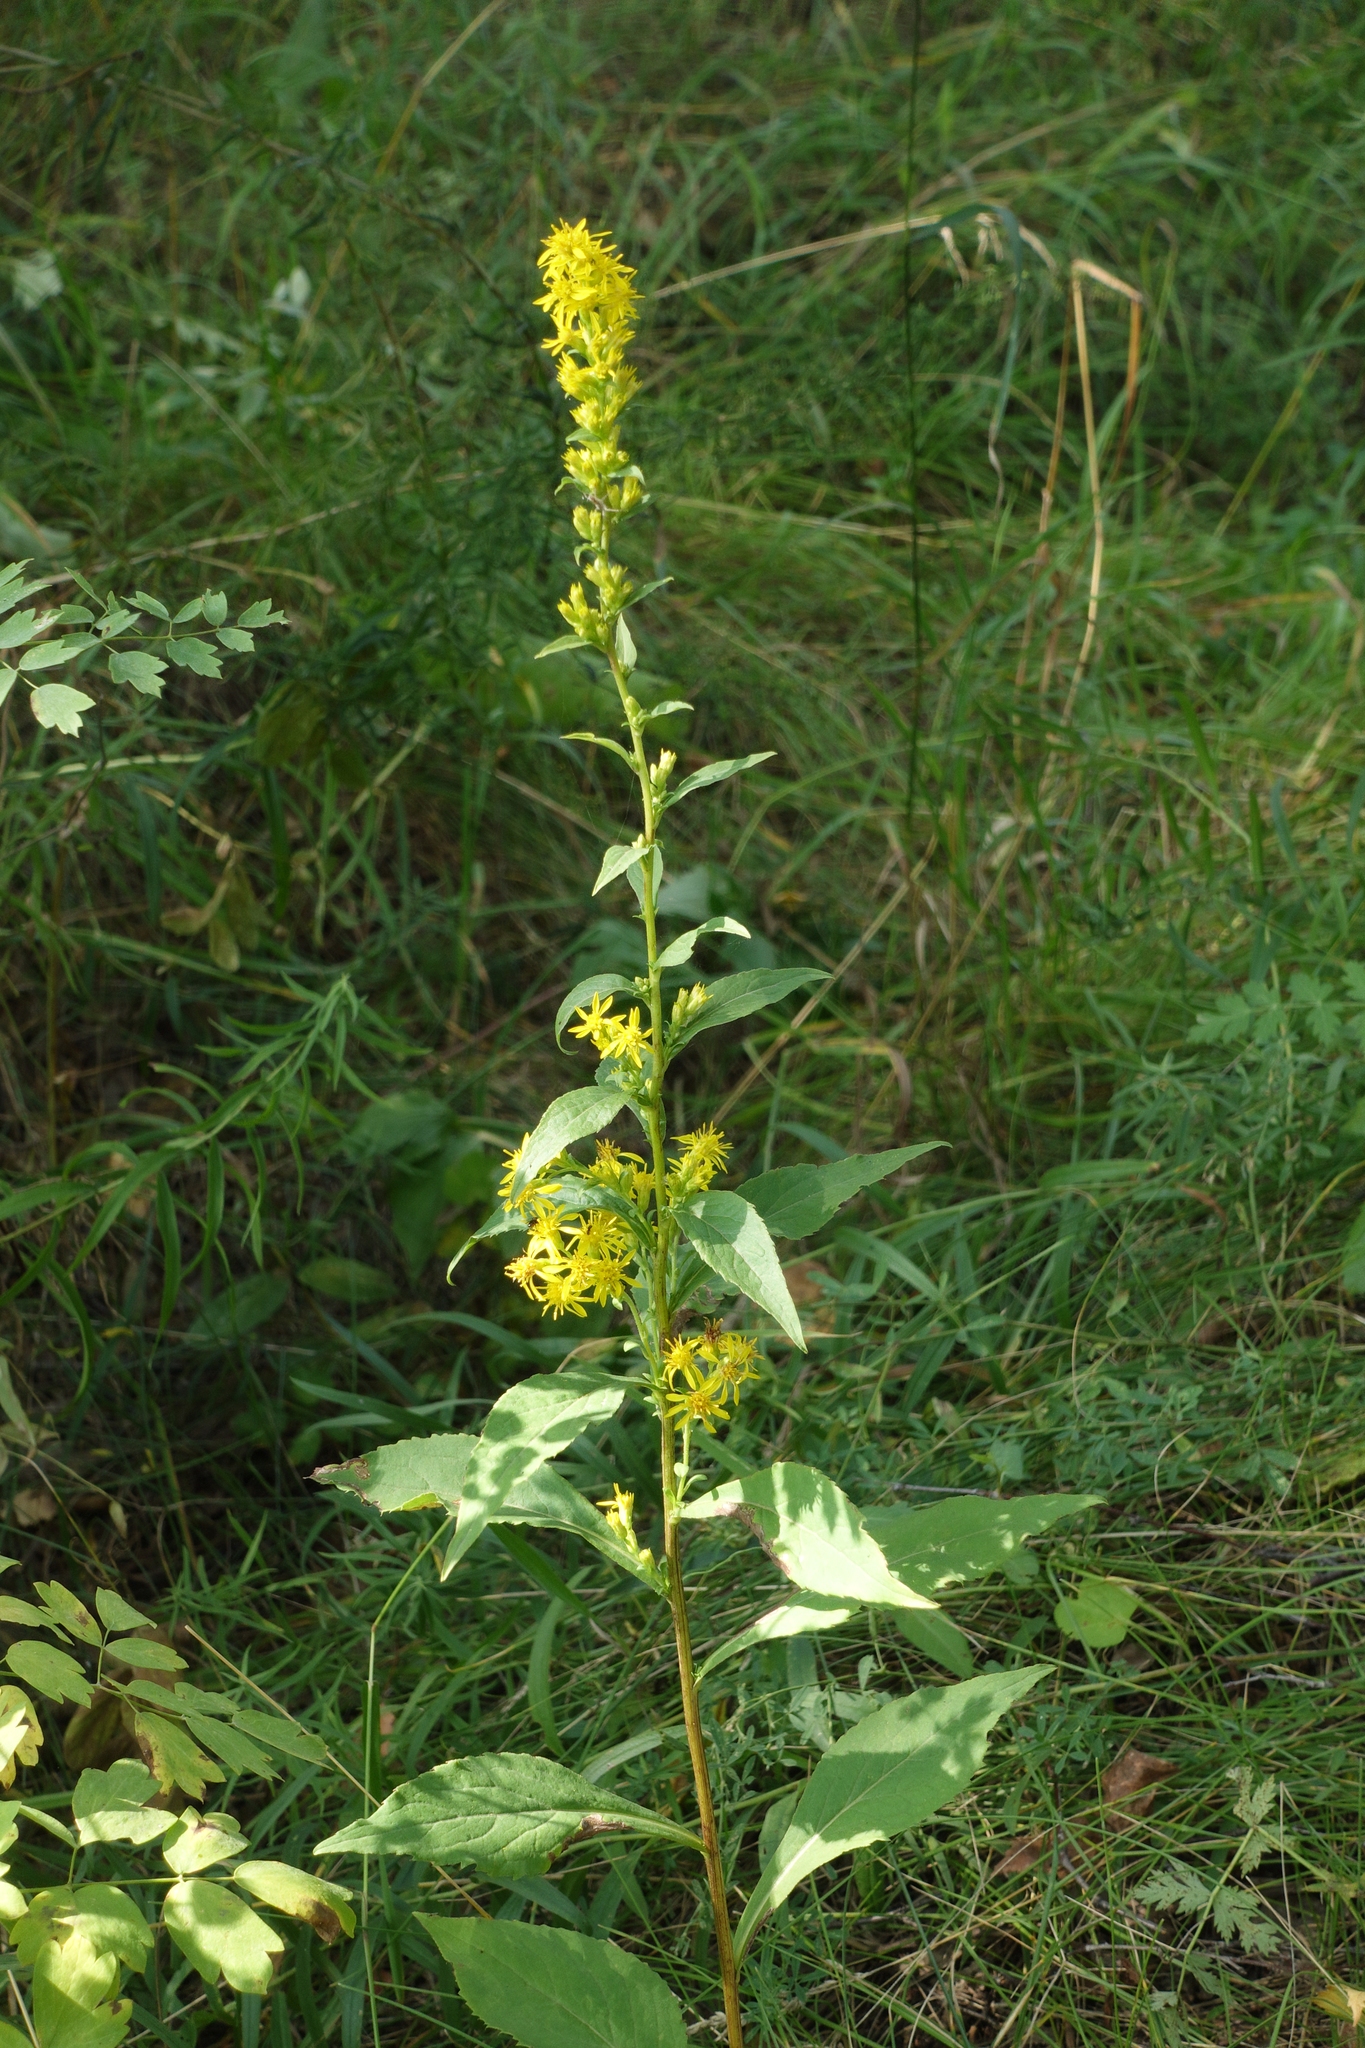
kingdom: Plantae
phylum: Tracheophyta
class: Magnoliopsida
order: Asterales
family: Asteraceae
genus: Solidago
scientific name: Solidago virgaurea
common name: Goldenrod
